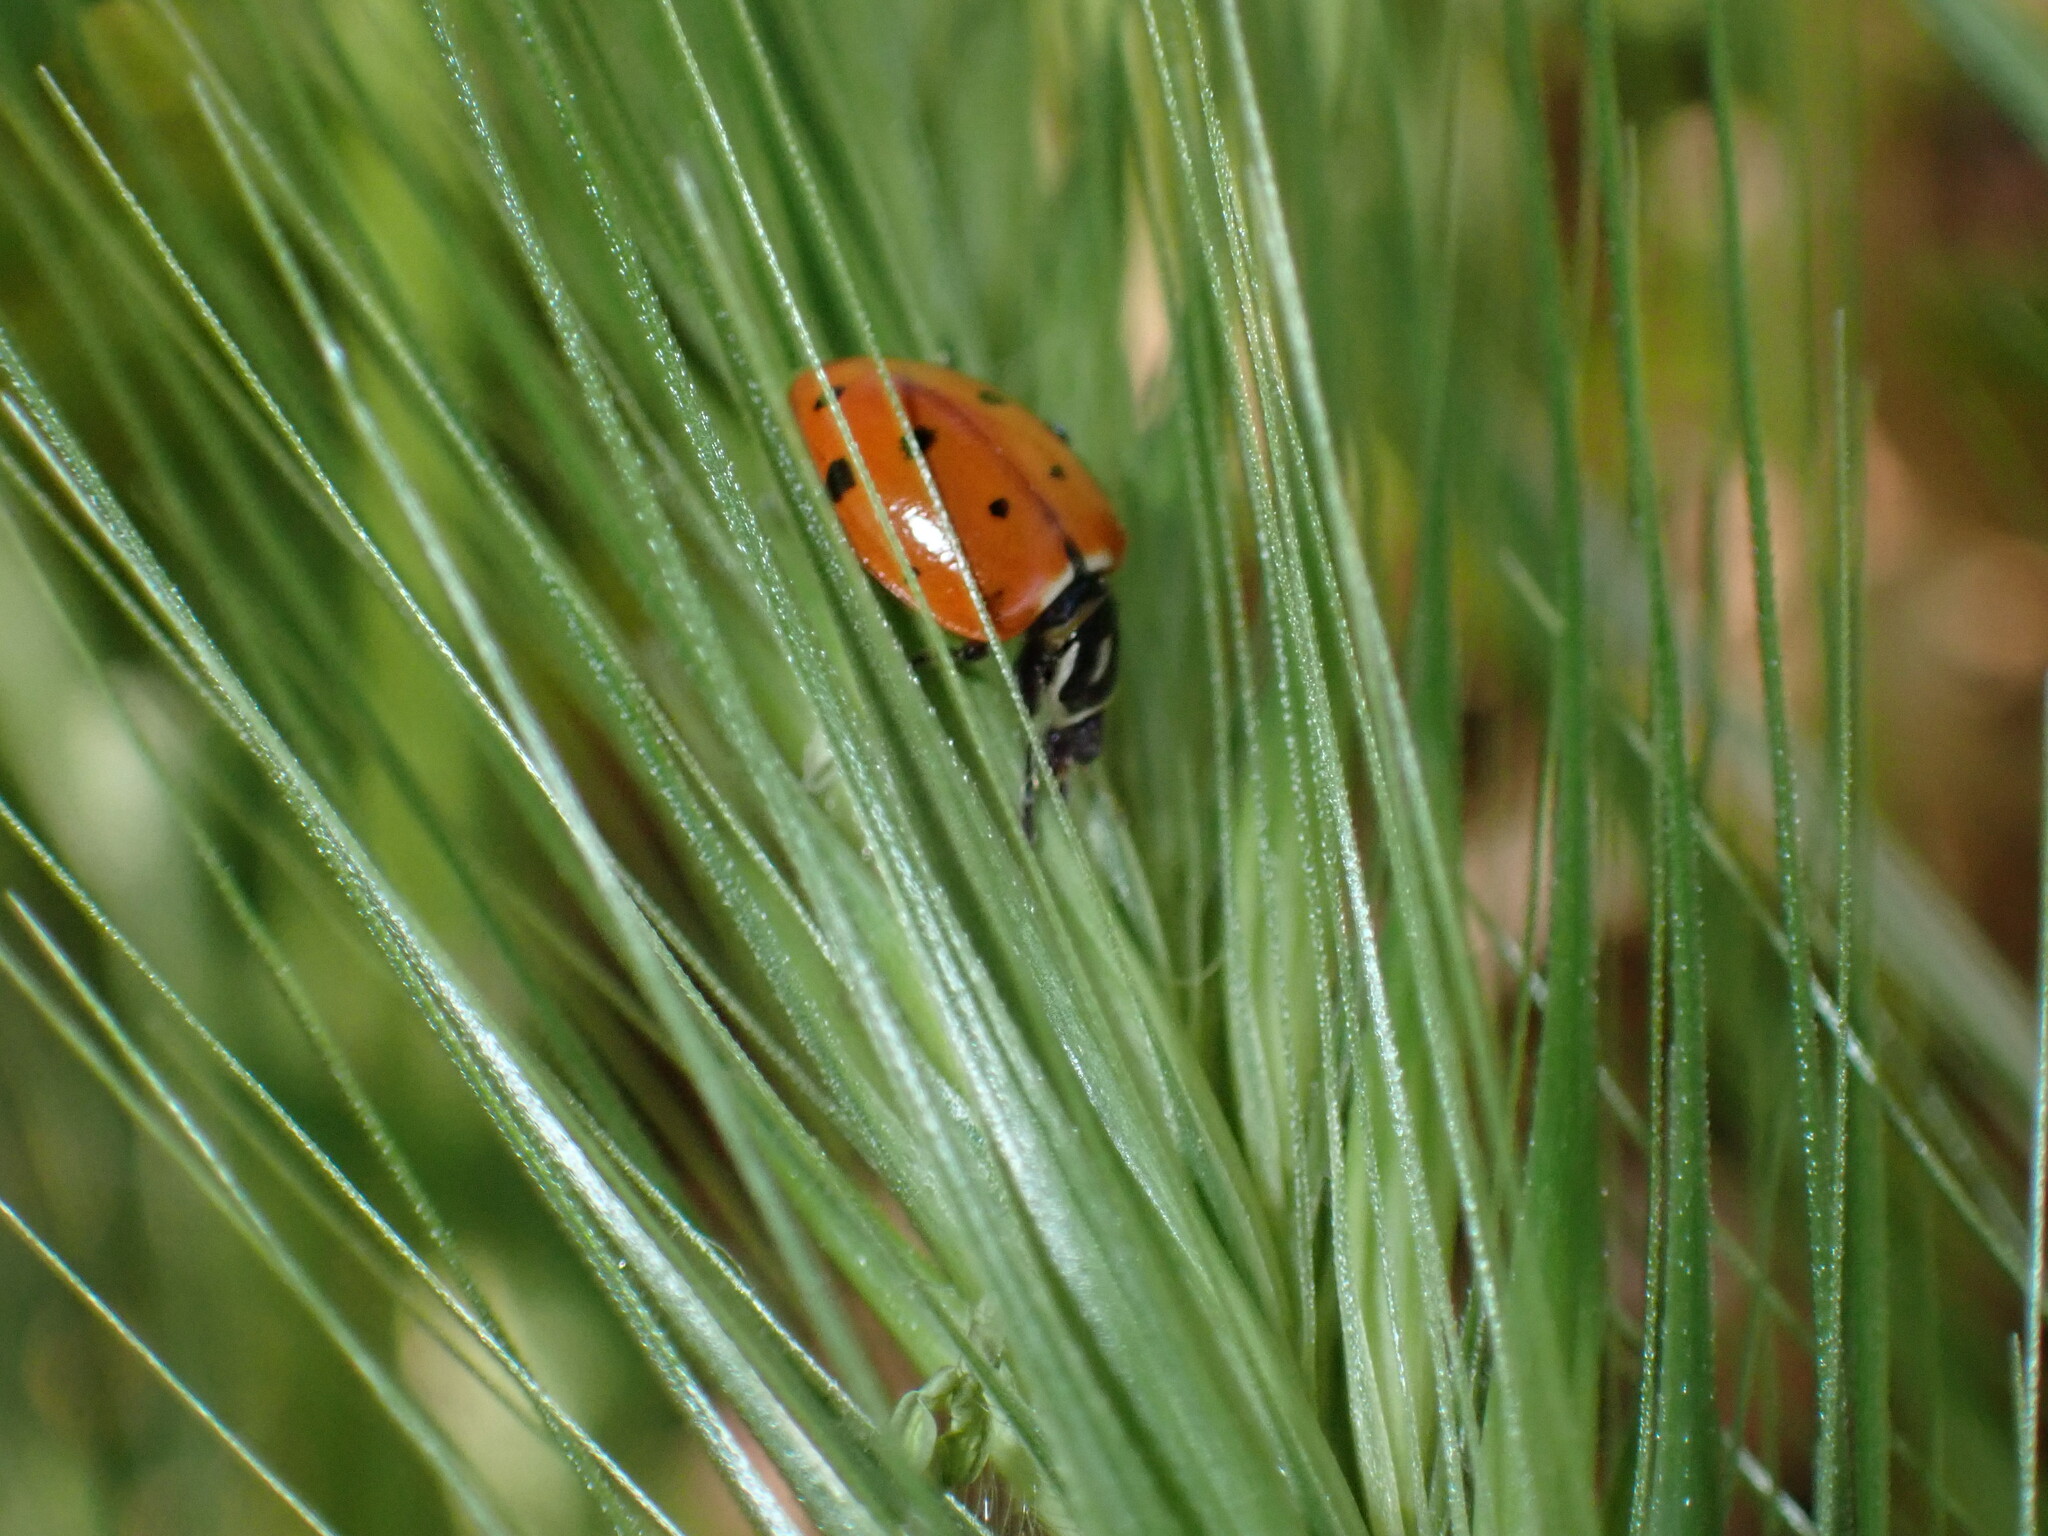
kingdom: Animalia
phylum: Arthropoda
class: Insecta
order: Coleoptera
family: Coccinellidae
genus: Hippodamia
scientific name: Hippodamia convergens
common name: Convergent lady beetle
